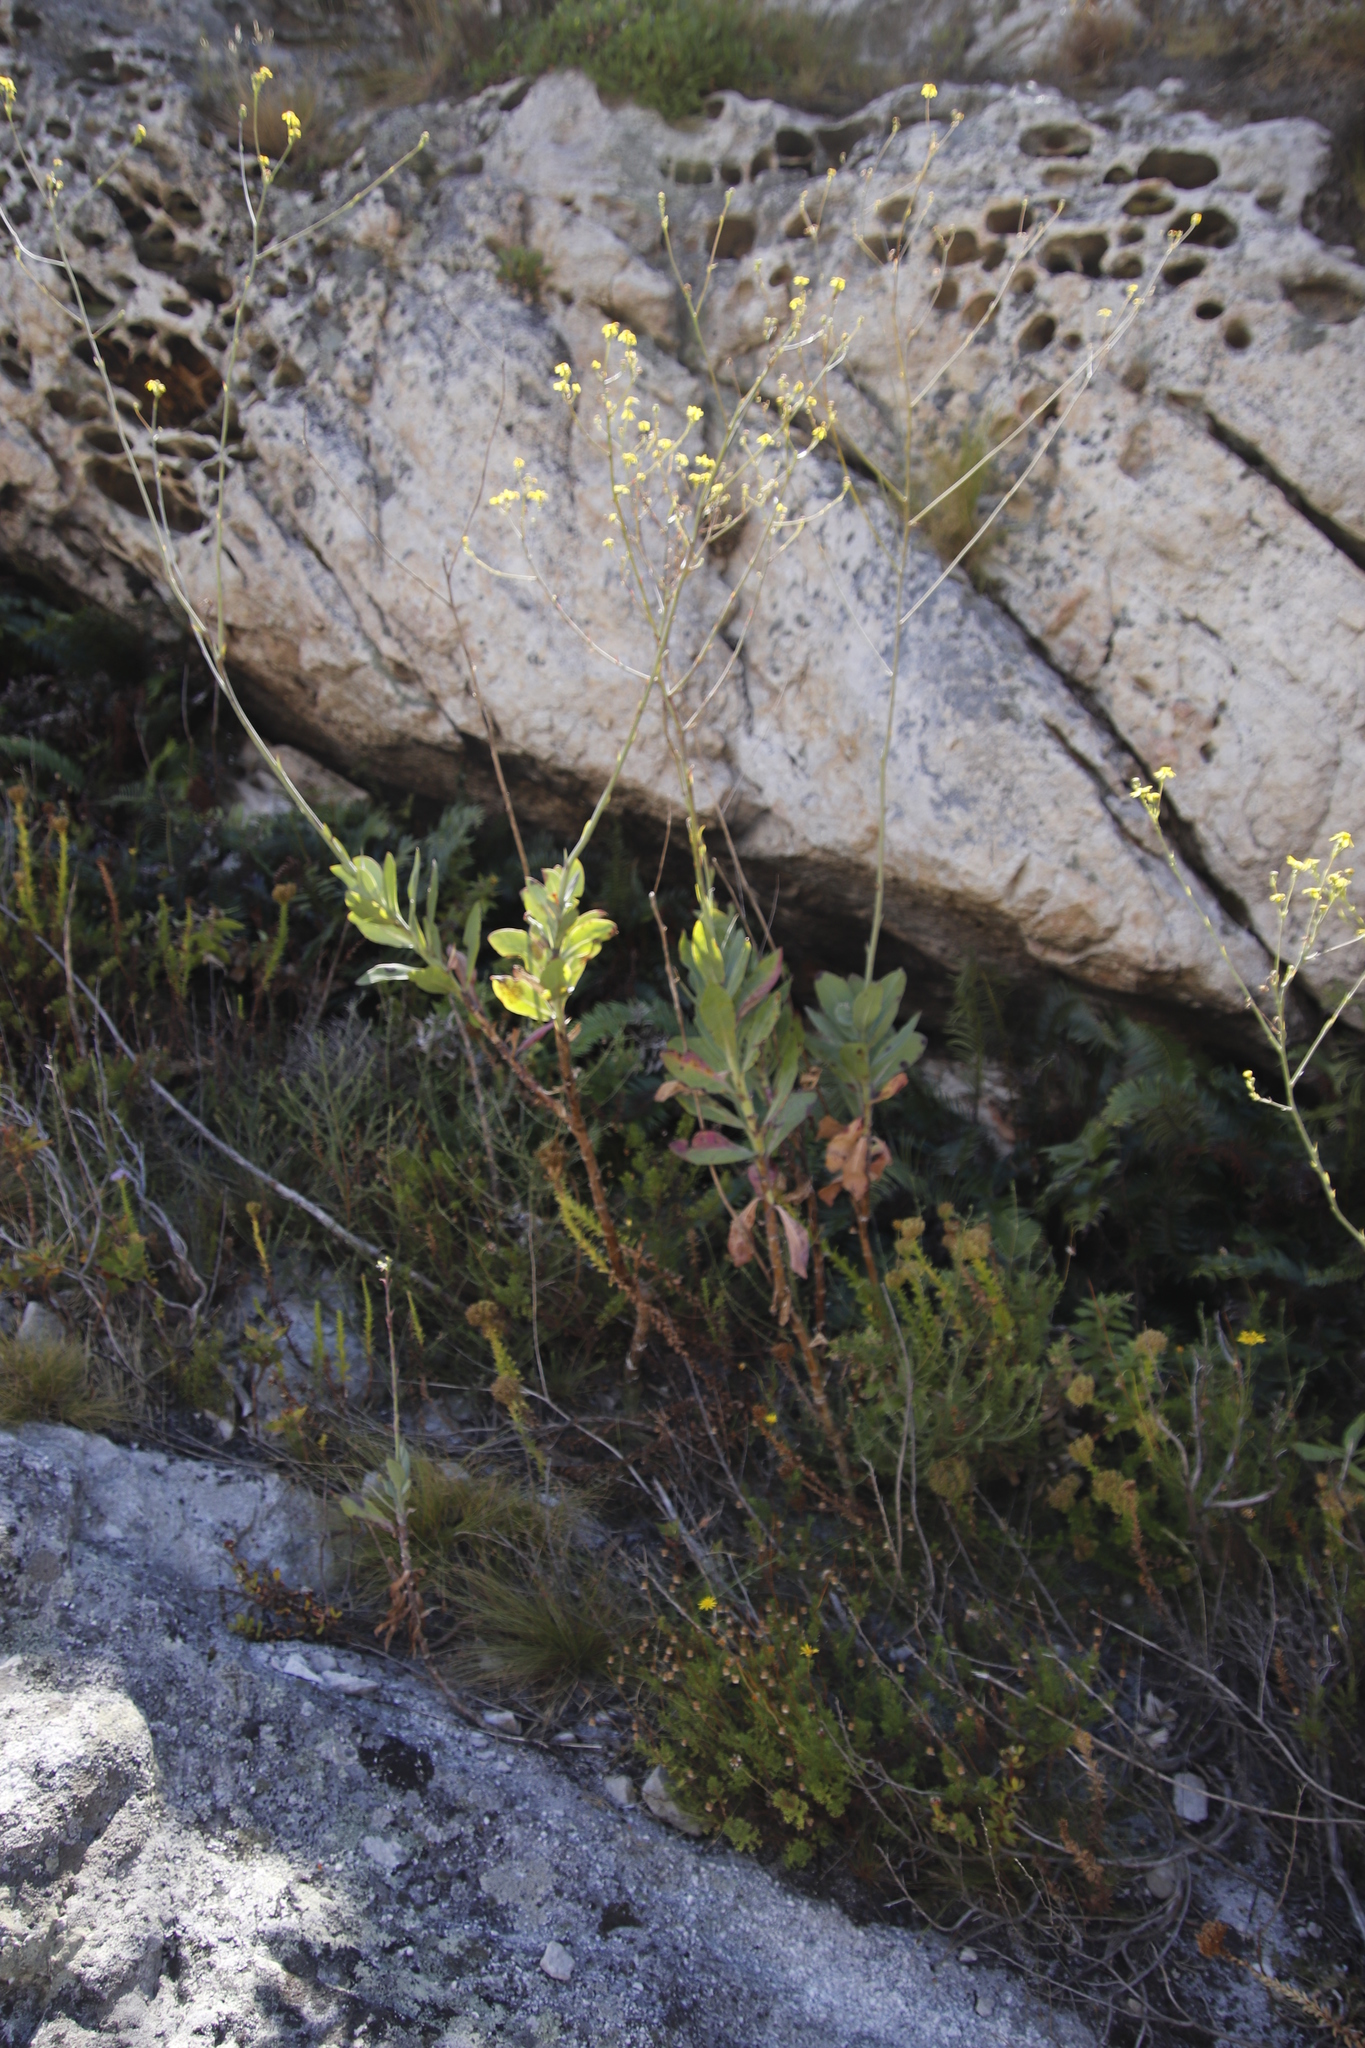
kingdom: Plantae
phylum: Tracheophyta
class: Magnoliopsida
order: Asterales
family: Asteraceae
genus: Othonna
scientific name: Othonna quinquedentata
